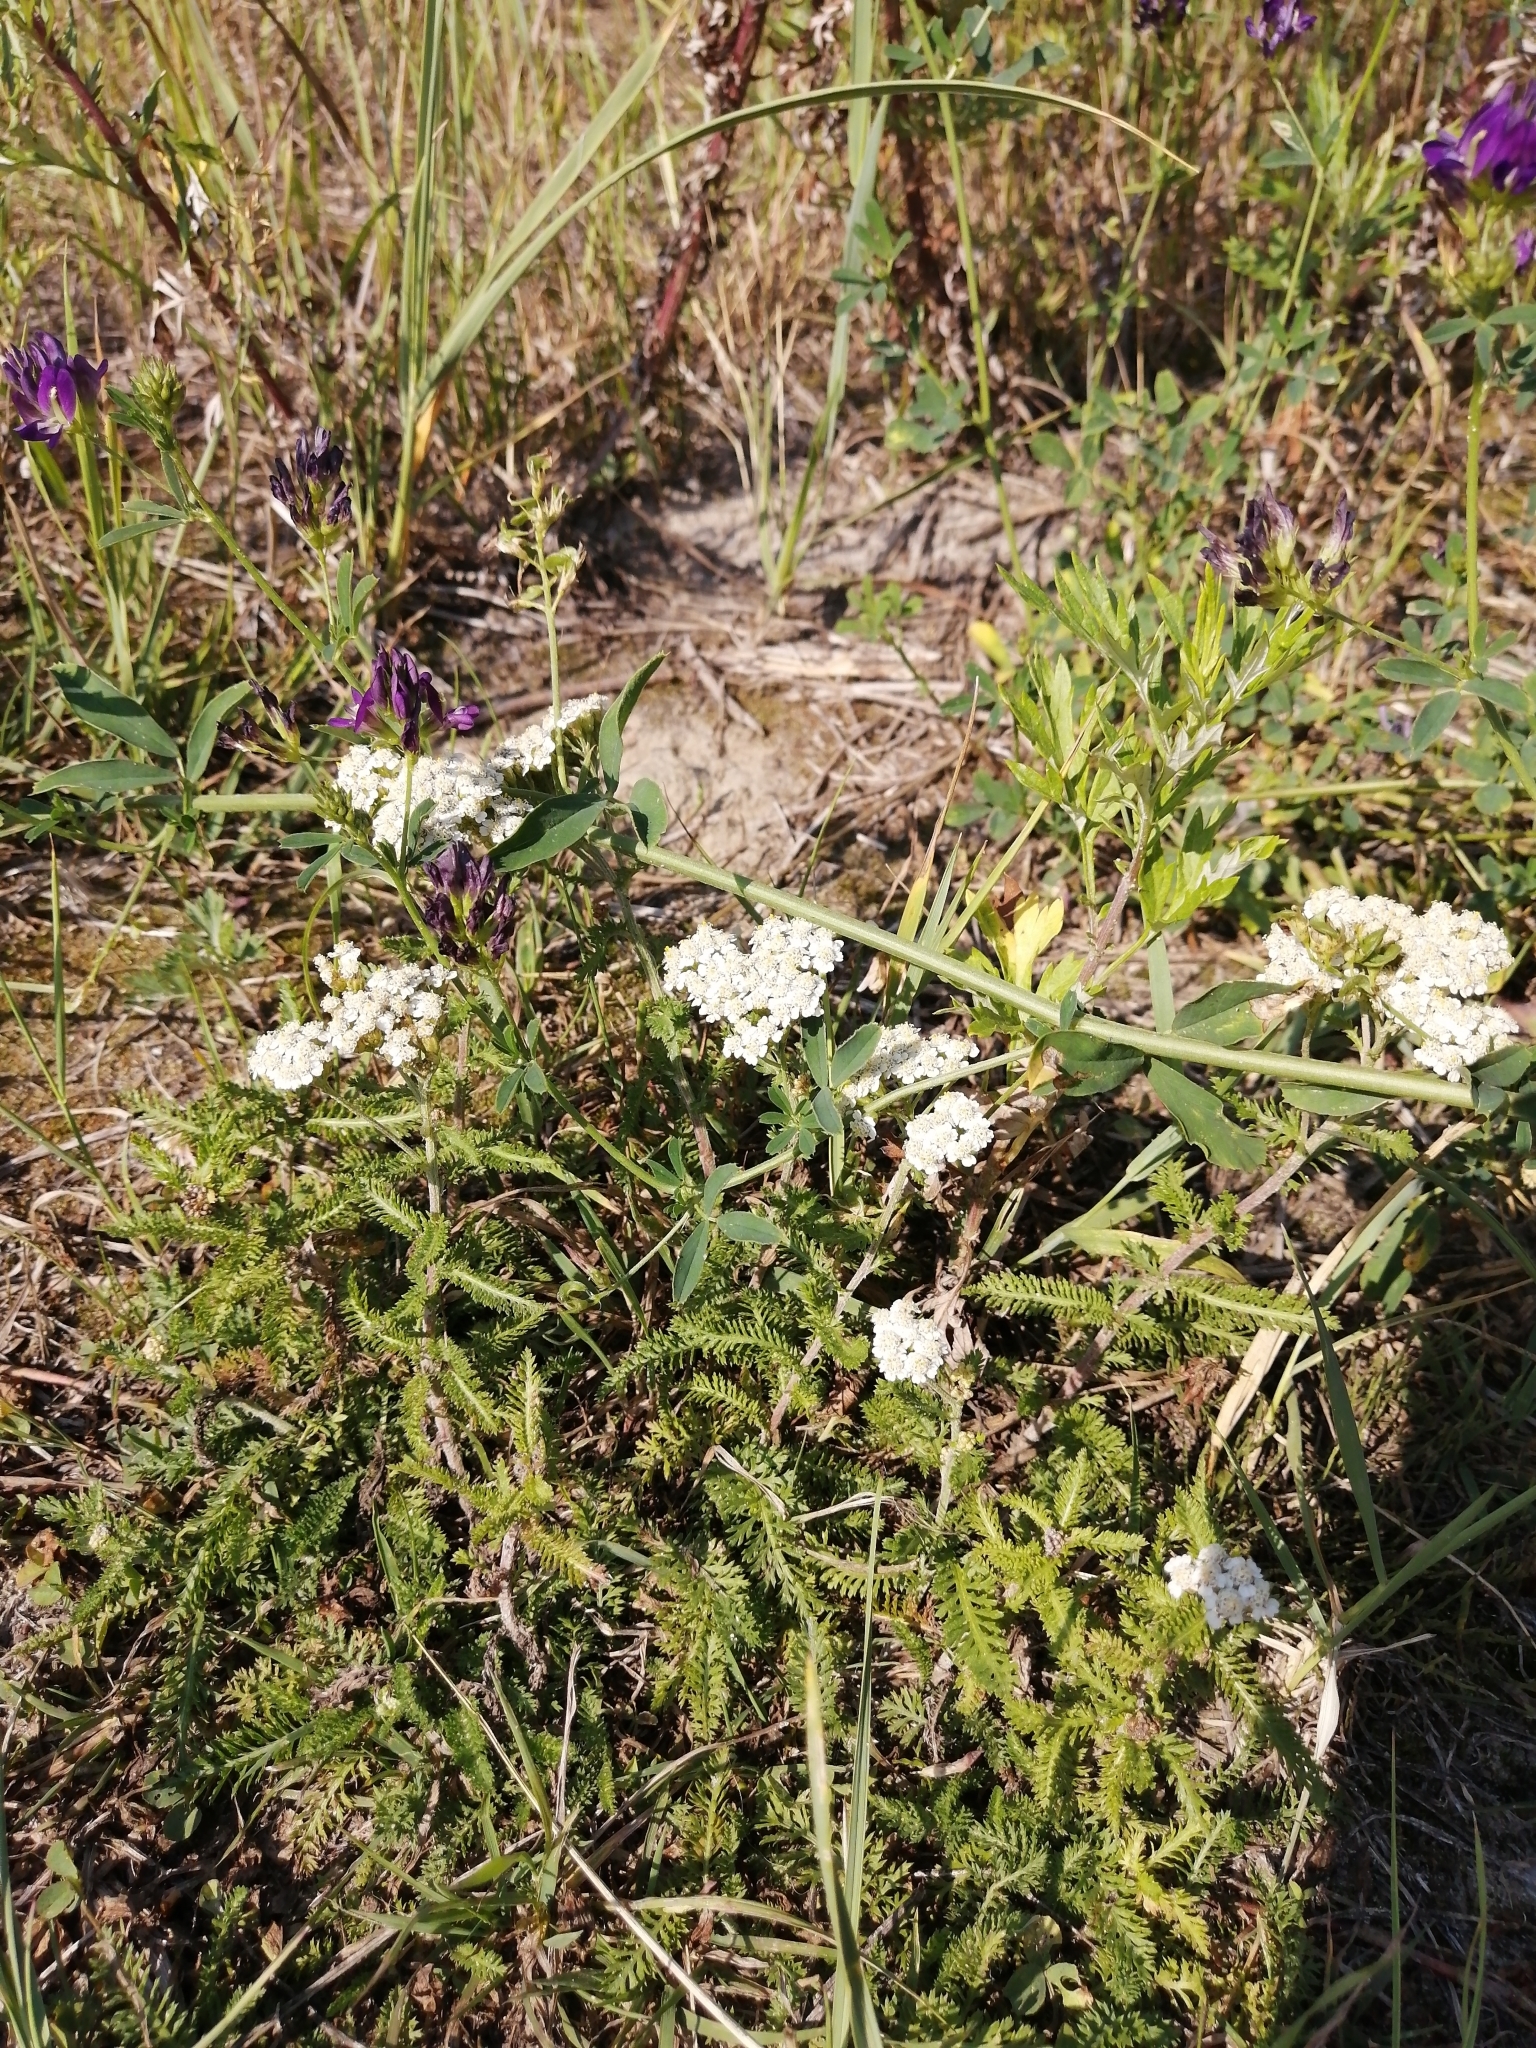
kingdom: Plantae
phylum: Tracheophyta
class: Magnoliopsida
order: Asterales
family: Asteraceae
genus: Achillea
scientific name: Achillea millefolium
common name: Yarrow
